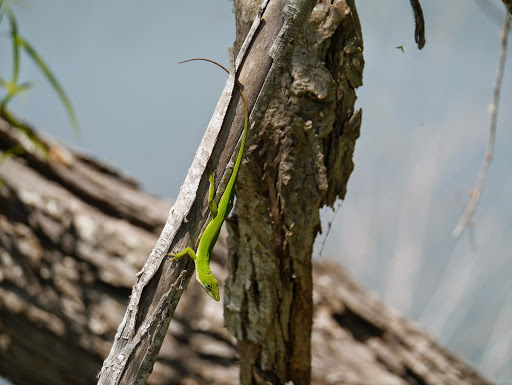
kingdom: Animalia
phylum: Chordata
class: Squamata
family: Dactyloidae
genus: Anolis
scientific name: Anolis carolinensis
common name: Green anole
